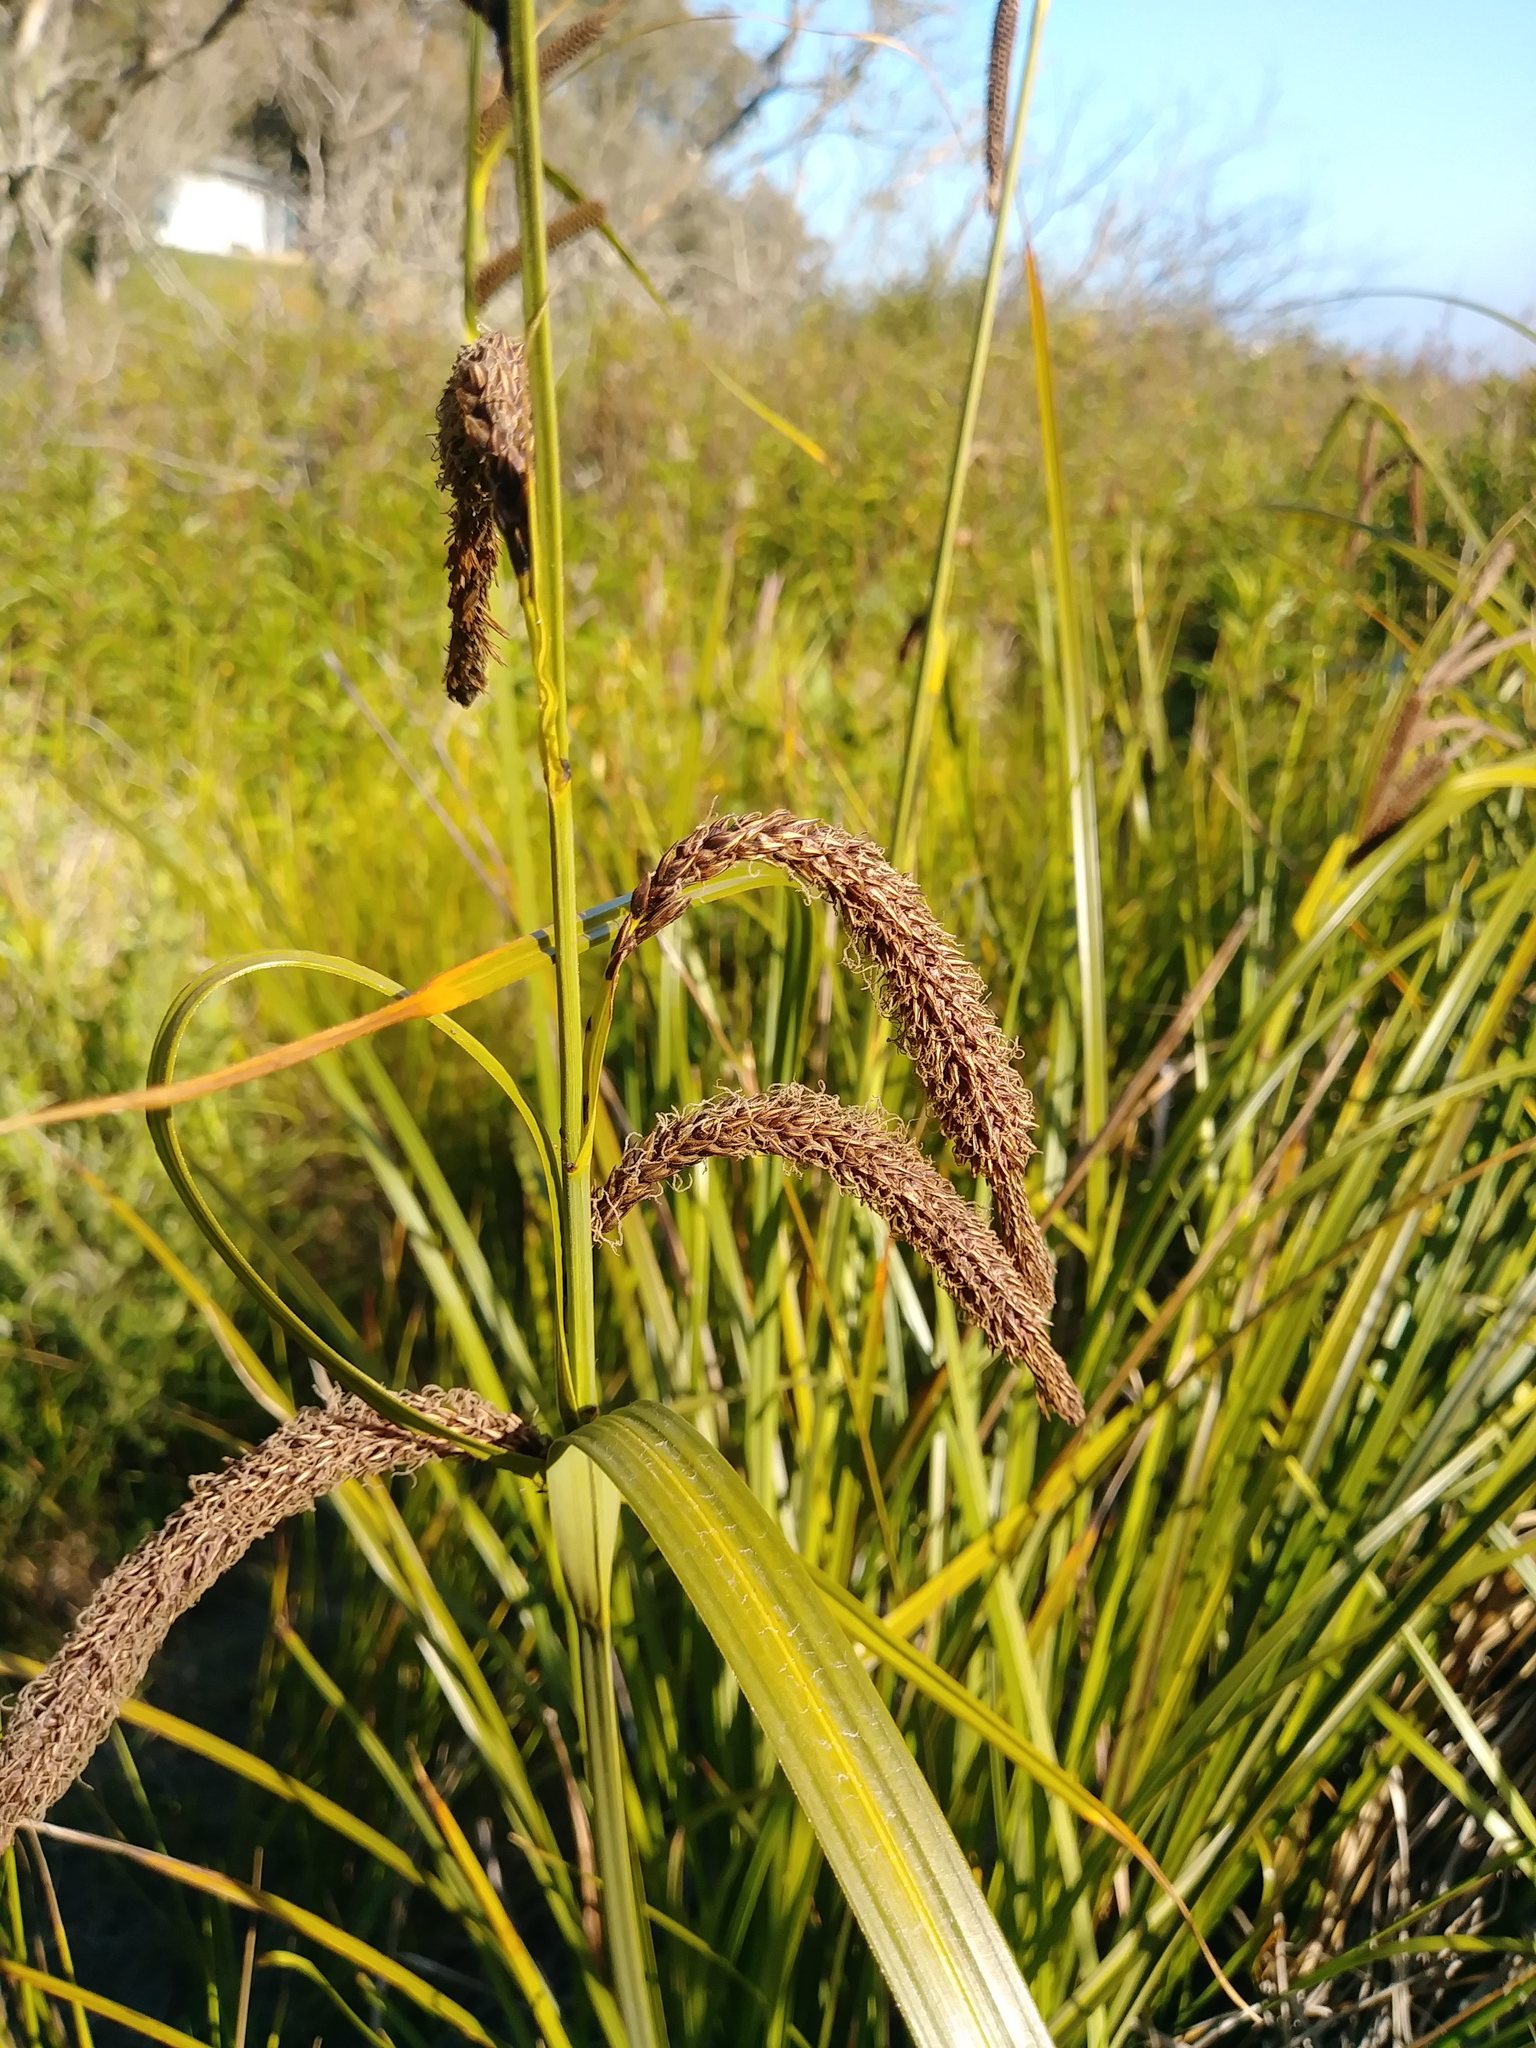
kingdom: Plantae
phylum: Tracheophyta
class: Liliopsida
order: Poales
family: Cyperaceae
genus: Carex
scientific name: Carex obnupta
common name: Slough sedge
